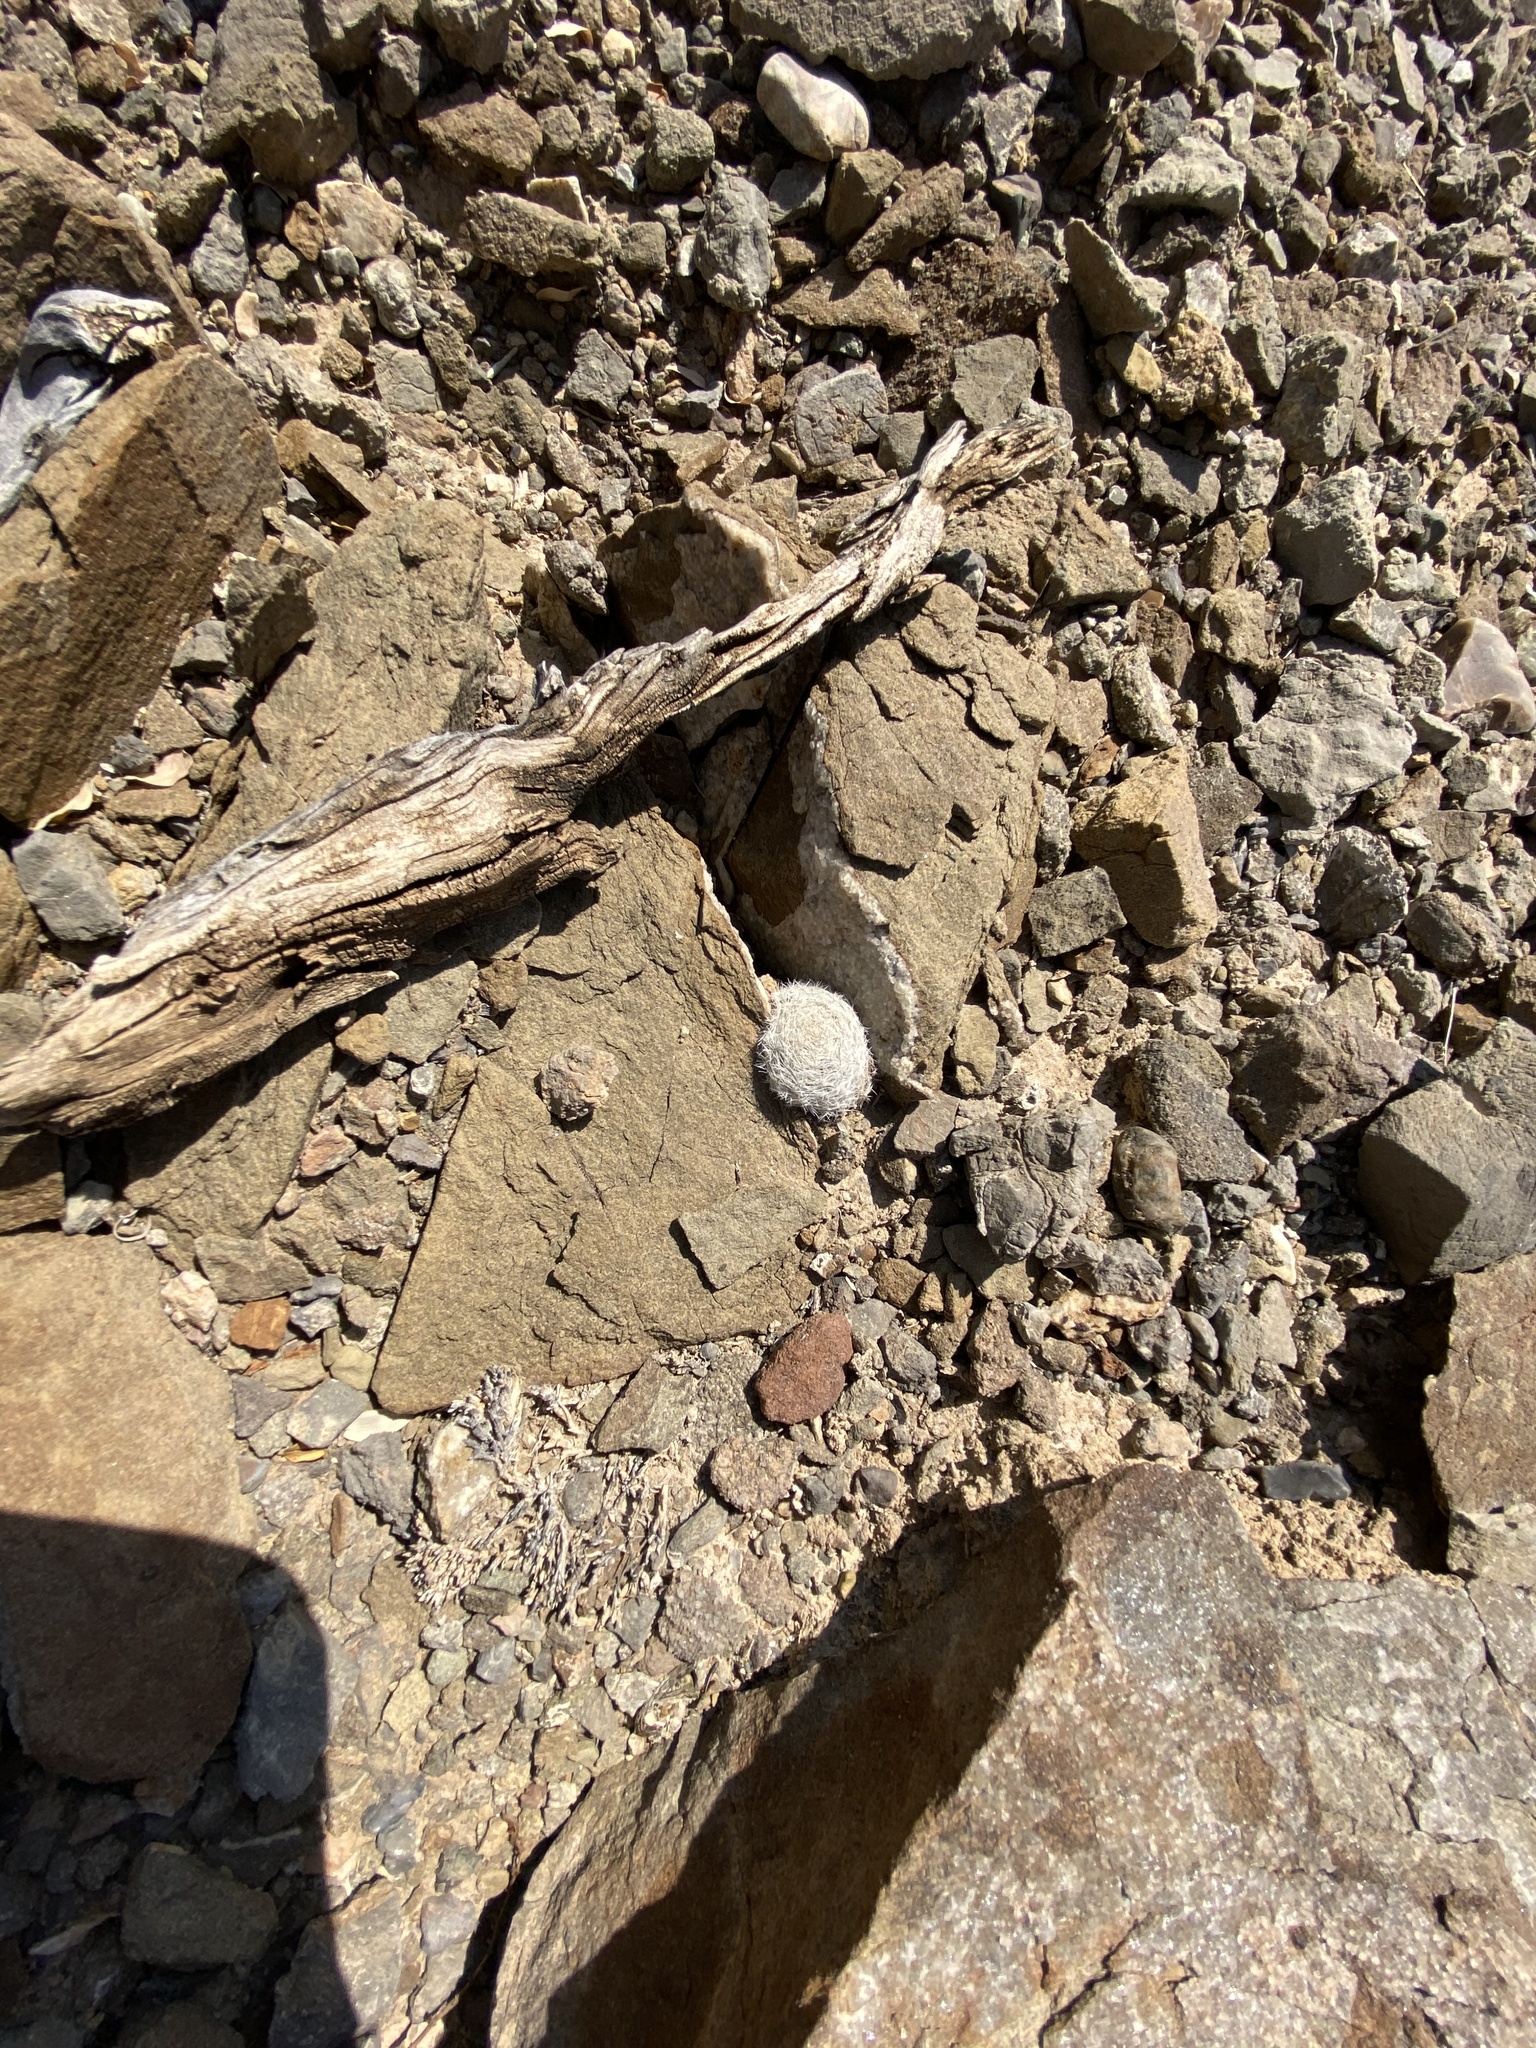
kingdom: Plantae
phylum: Tracheophyta
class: Magnoliopsida
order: Caryophyllales
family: Cactaceae
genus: Mammillaria
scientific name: Mammillaria lasiacantha
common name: Lace-spine nipple cactus
